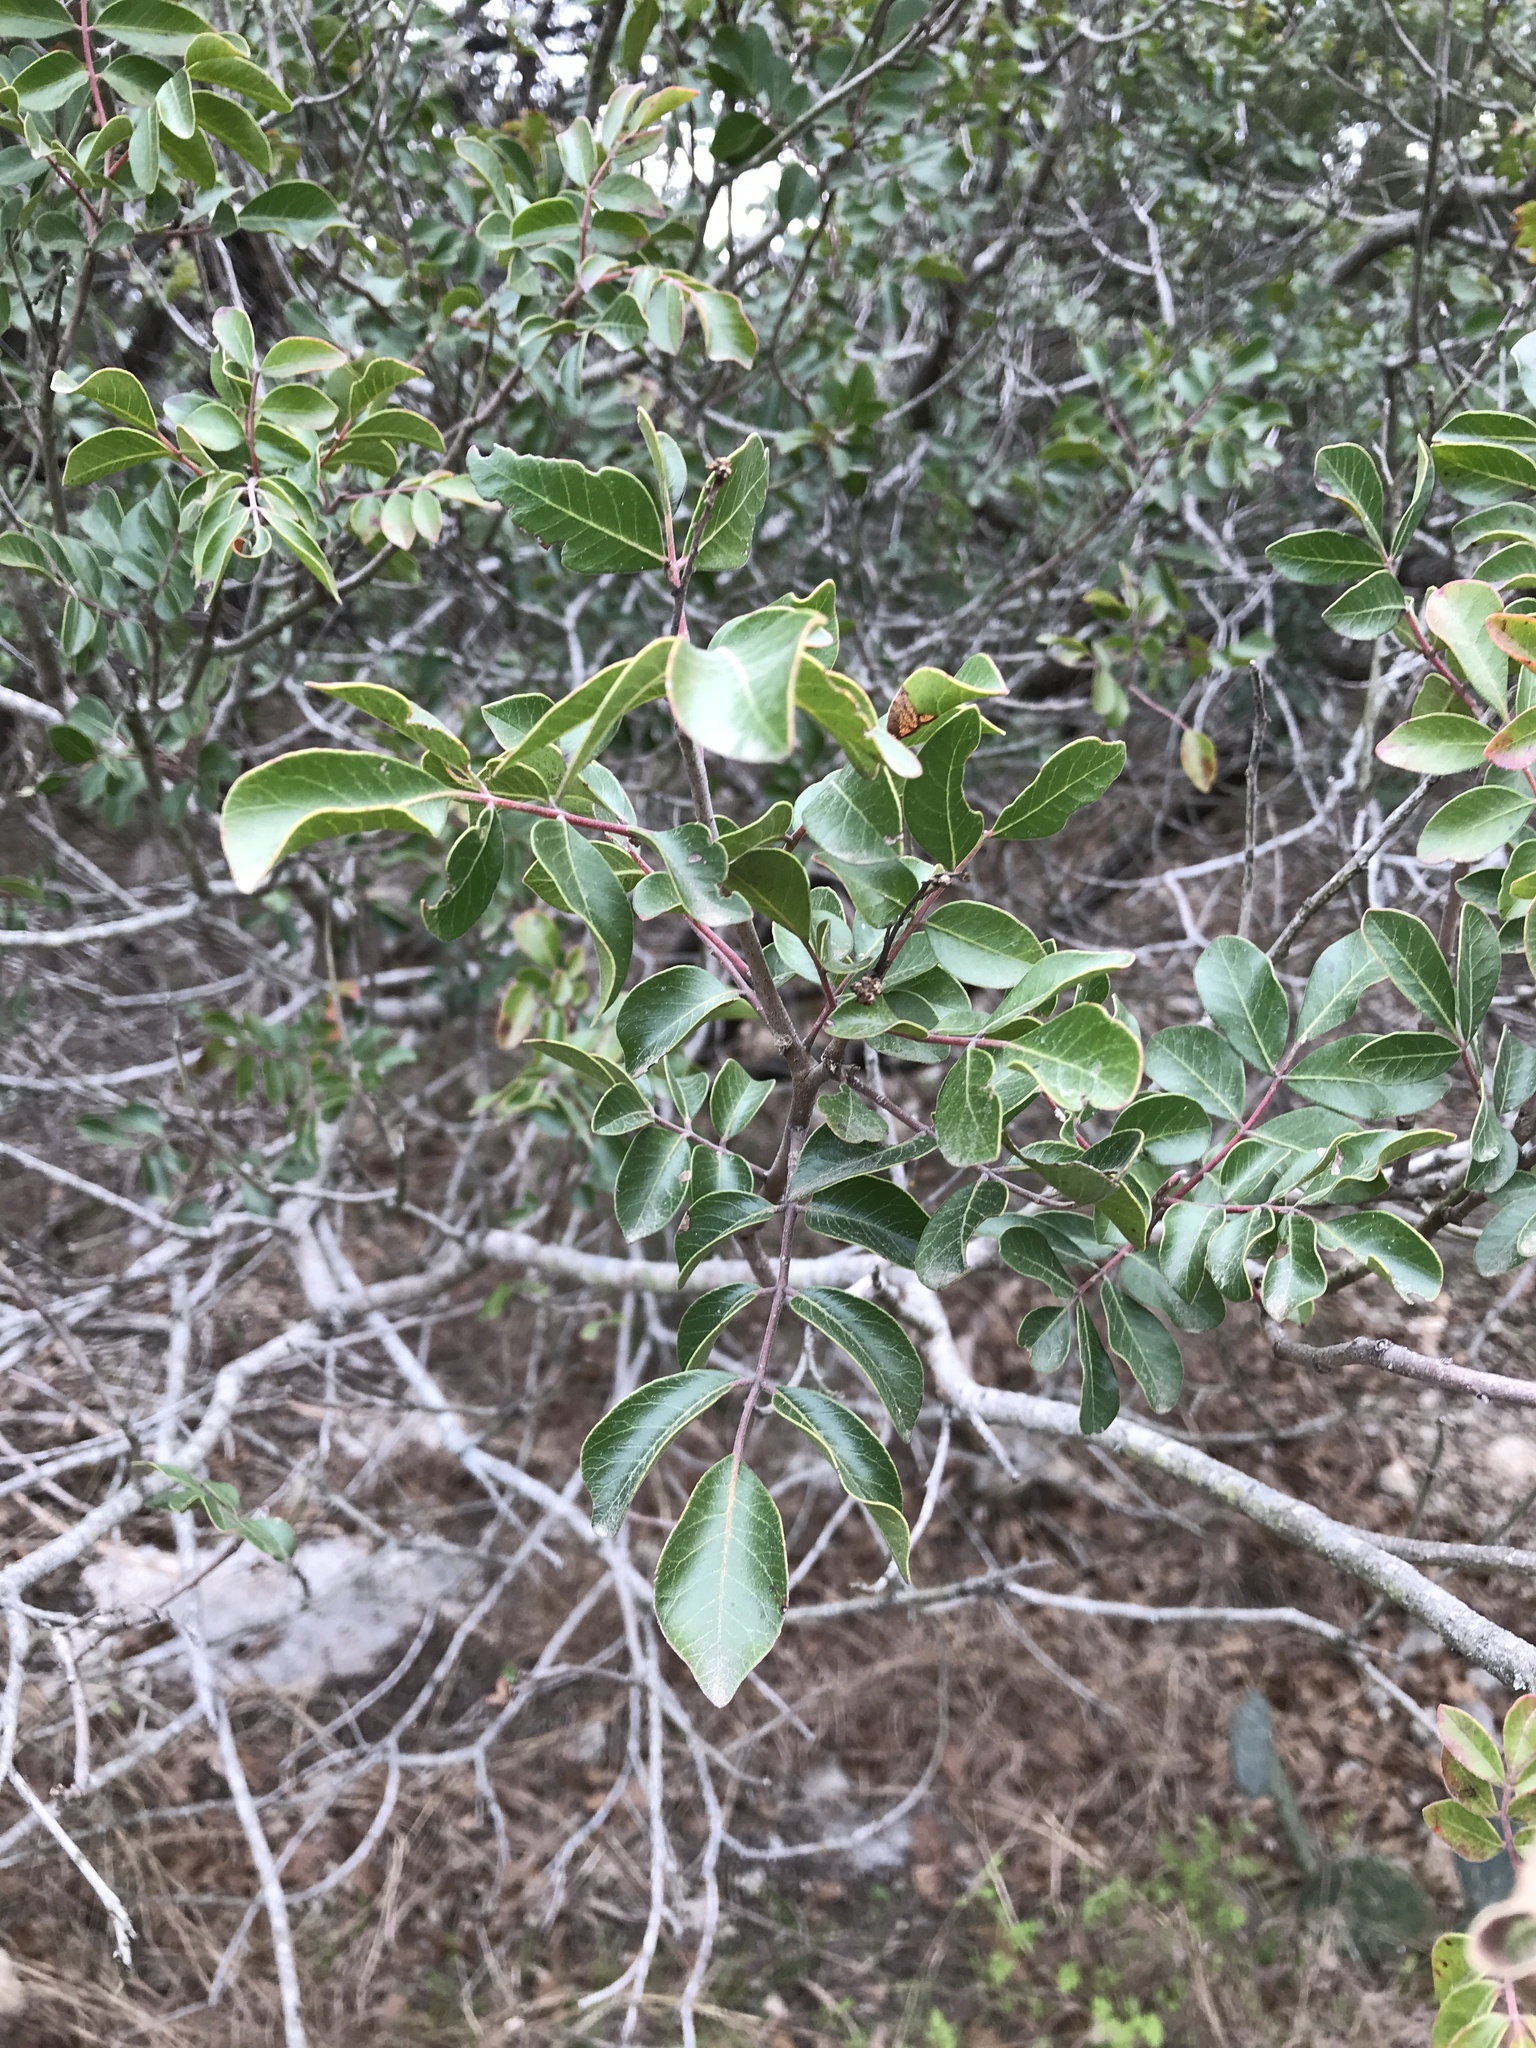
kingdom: Plantae
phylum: Tracheophyta
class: Magnoliopsida
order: Sapindales
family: Anacardiaceae
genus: Rhus
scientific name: Rhus virens
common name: Evergreen sumac
